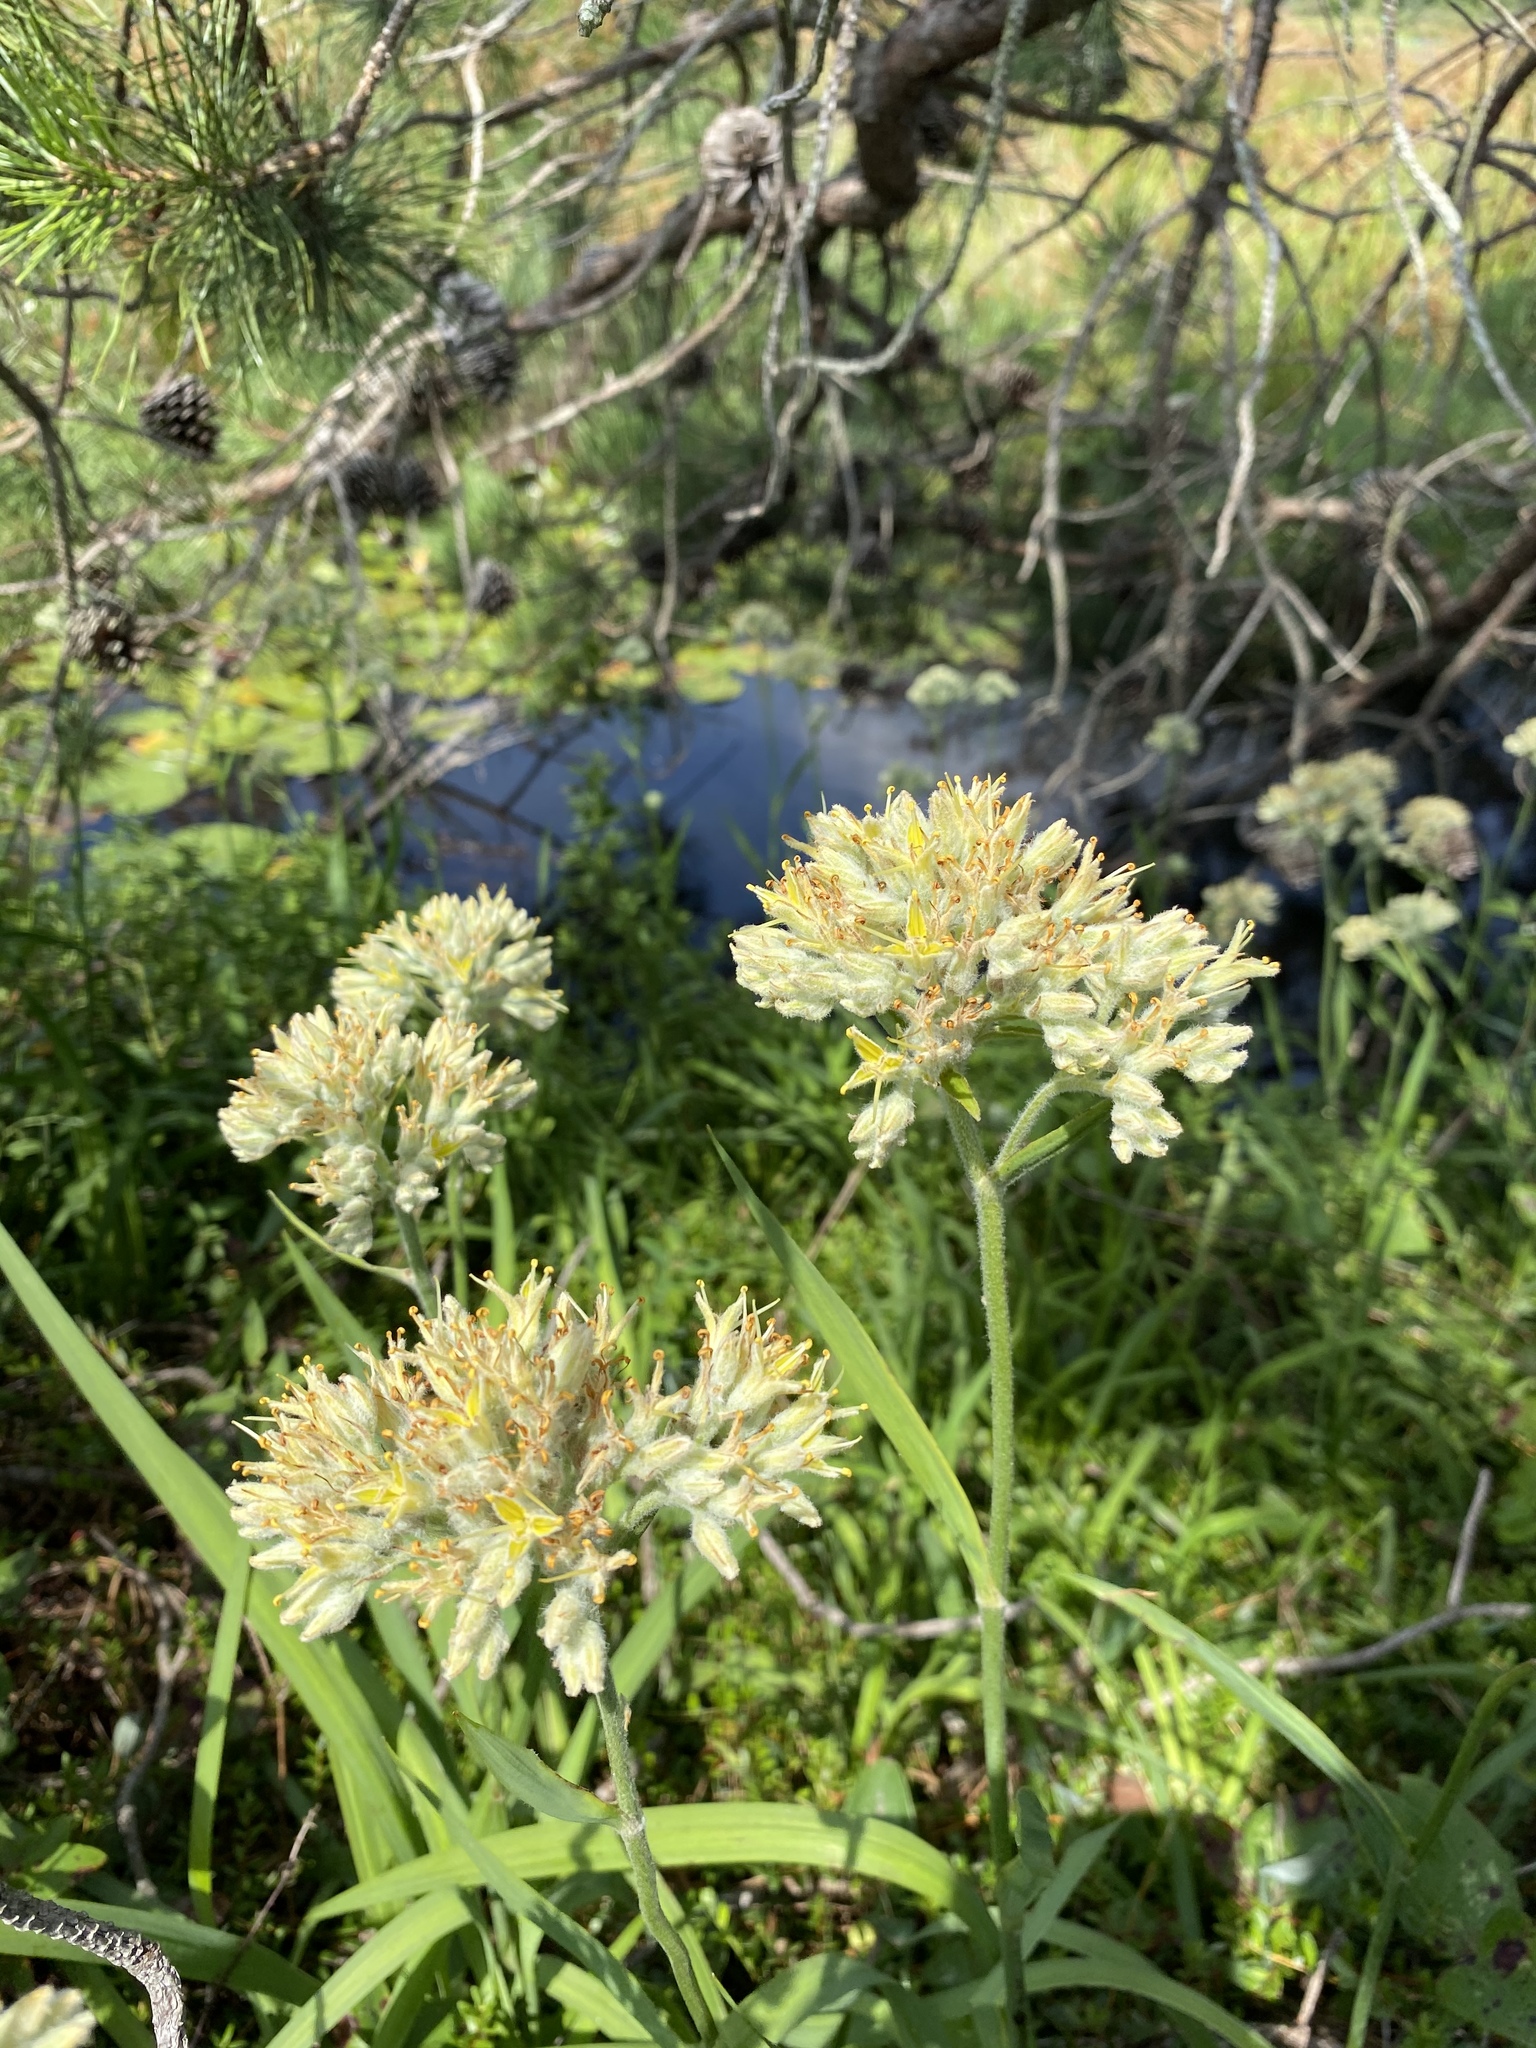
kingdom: Plantae
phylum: Tracheophyta
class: Liliopsida
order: Commelinales
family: Haemodoraceae
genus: Lachnanthes
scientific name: Lachnanthes caroliana
